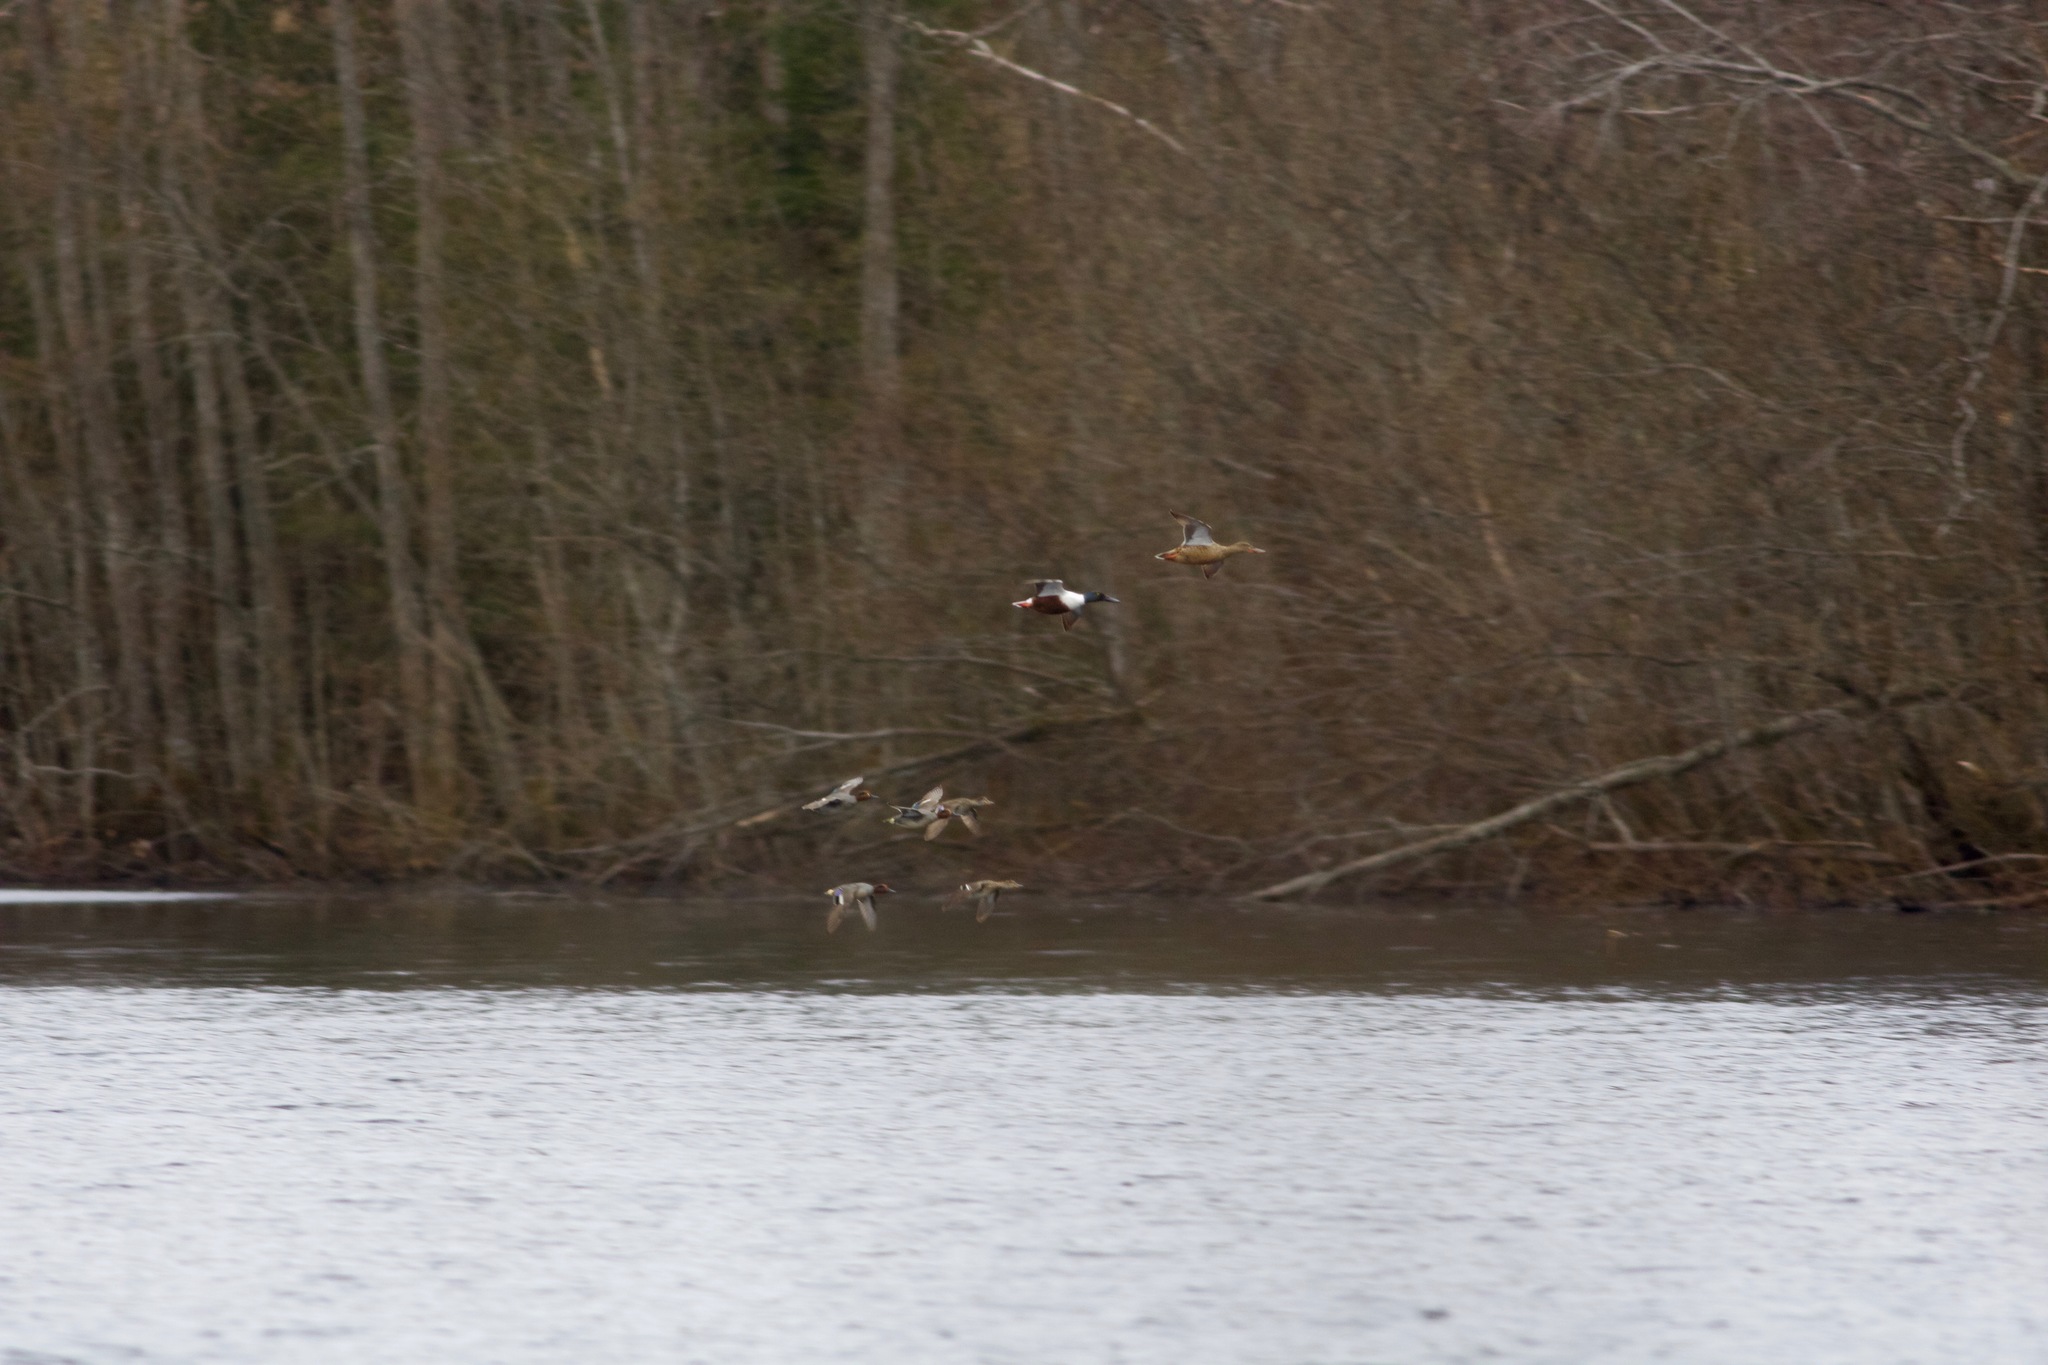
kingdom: Animalia
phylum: Chordata
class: Aves
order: Anseriformes
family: Anatidae
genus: Spatula
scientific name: Spatula clypeata
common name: Northern shoveler
